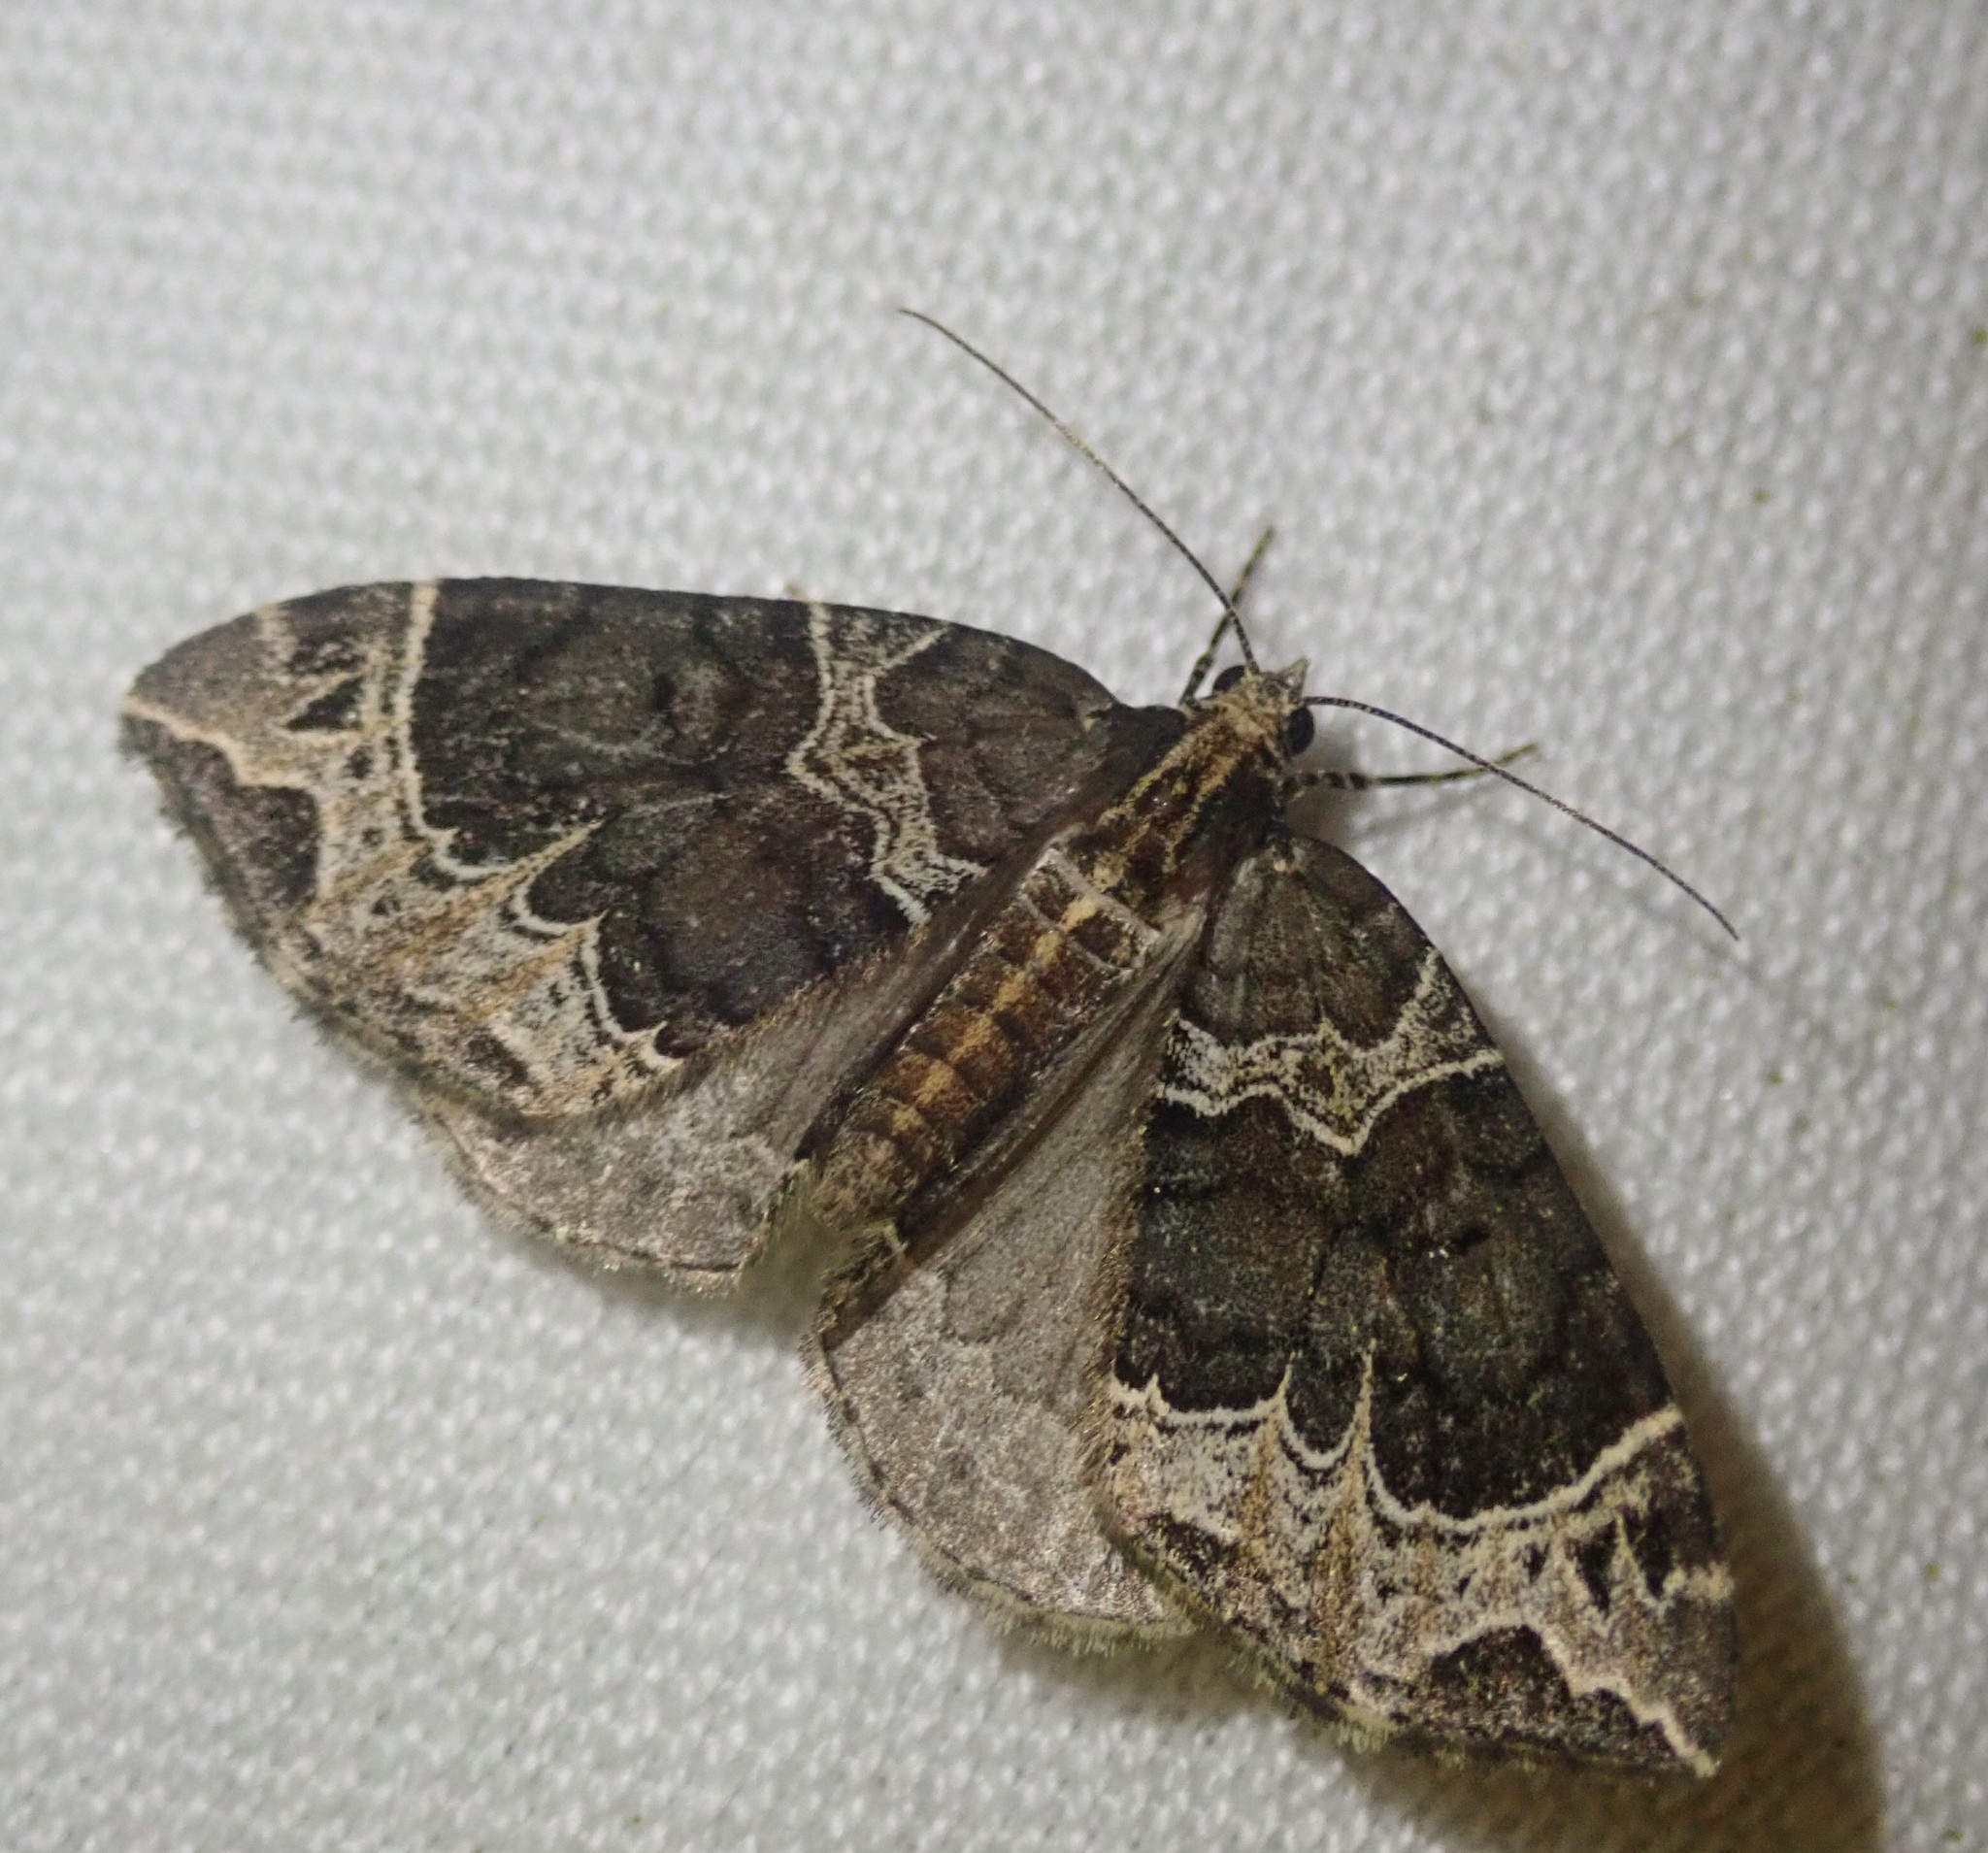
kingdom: Animalia
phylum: Arthropoda
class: Insecta
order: Lepidoptera
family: Geometridae
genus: Ecliptopera
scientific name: Ecliptopera silaceata
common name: Small phoenix
